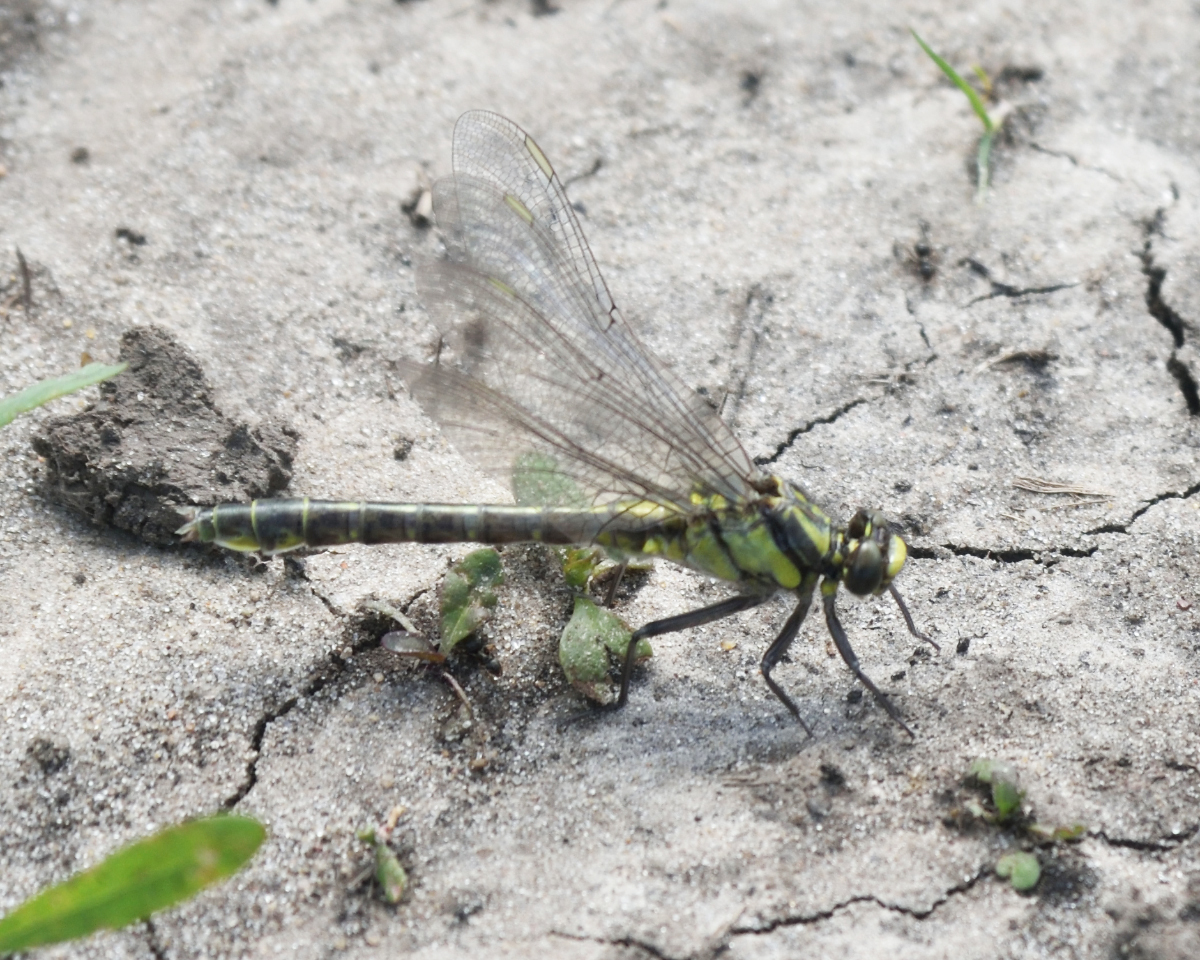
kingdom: Animalia
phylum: Arthropoda
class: Insecta
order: Odonata
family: Gomphidae
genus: Gomphus
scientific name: Gomphus vulgatissimus
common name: Club-tailed dragonfly
